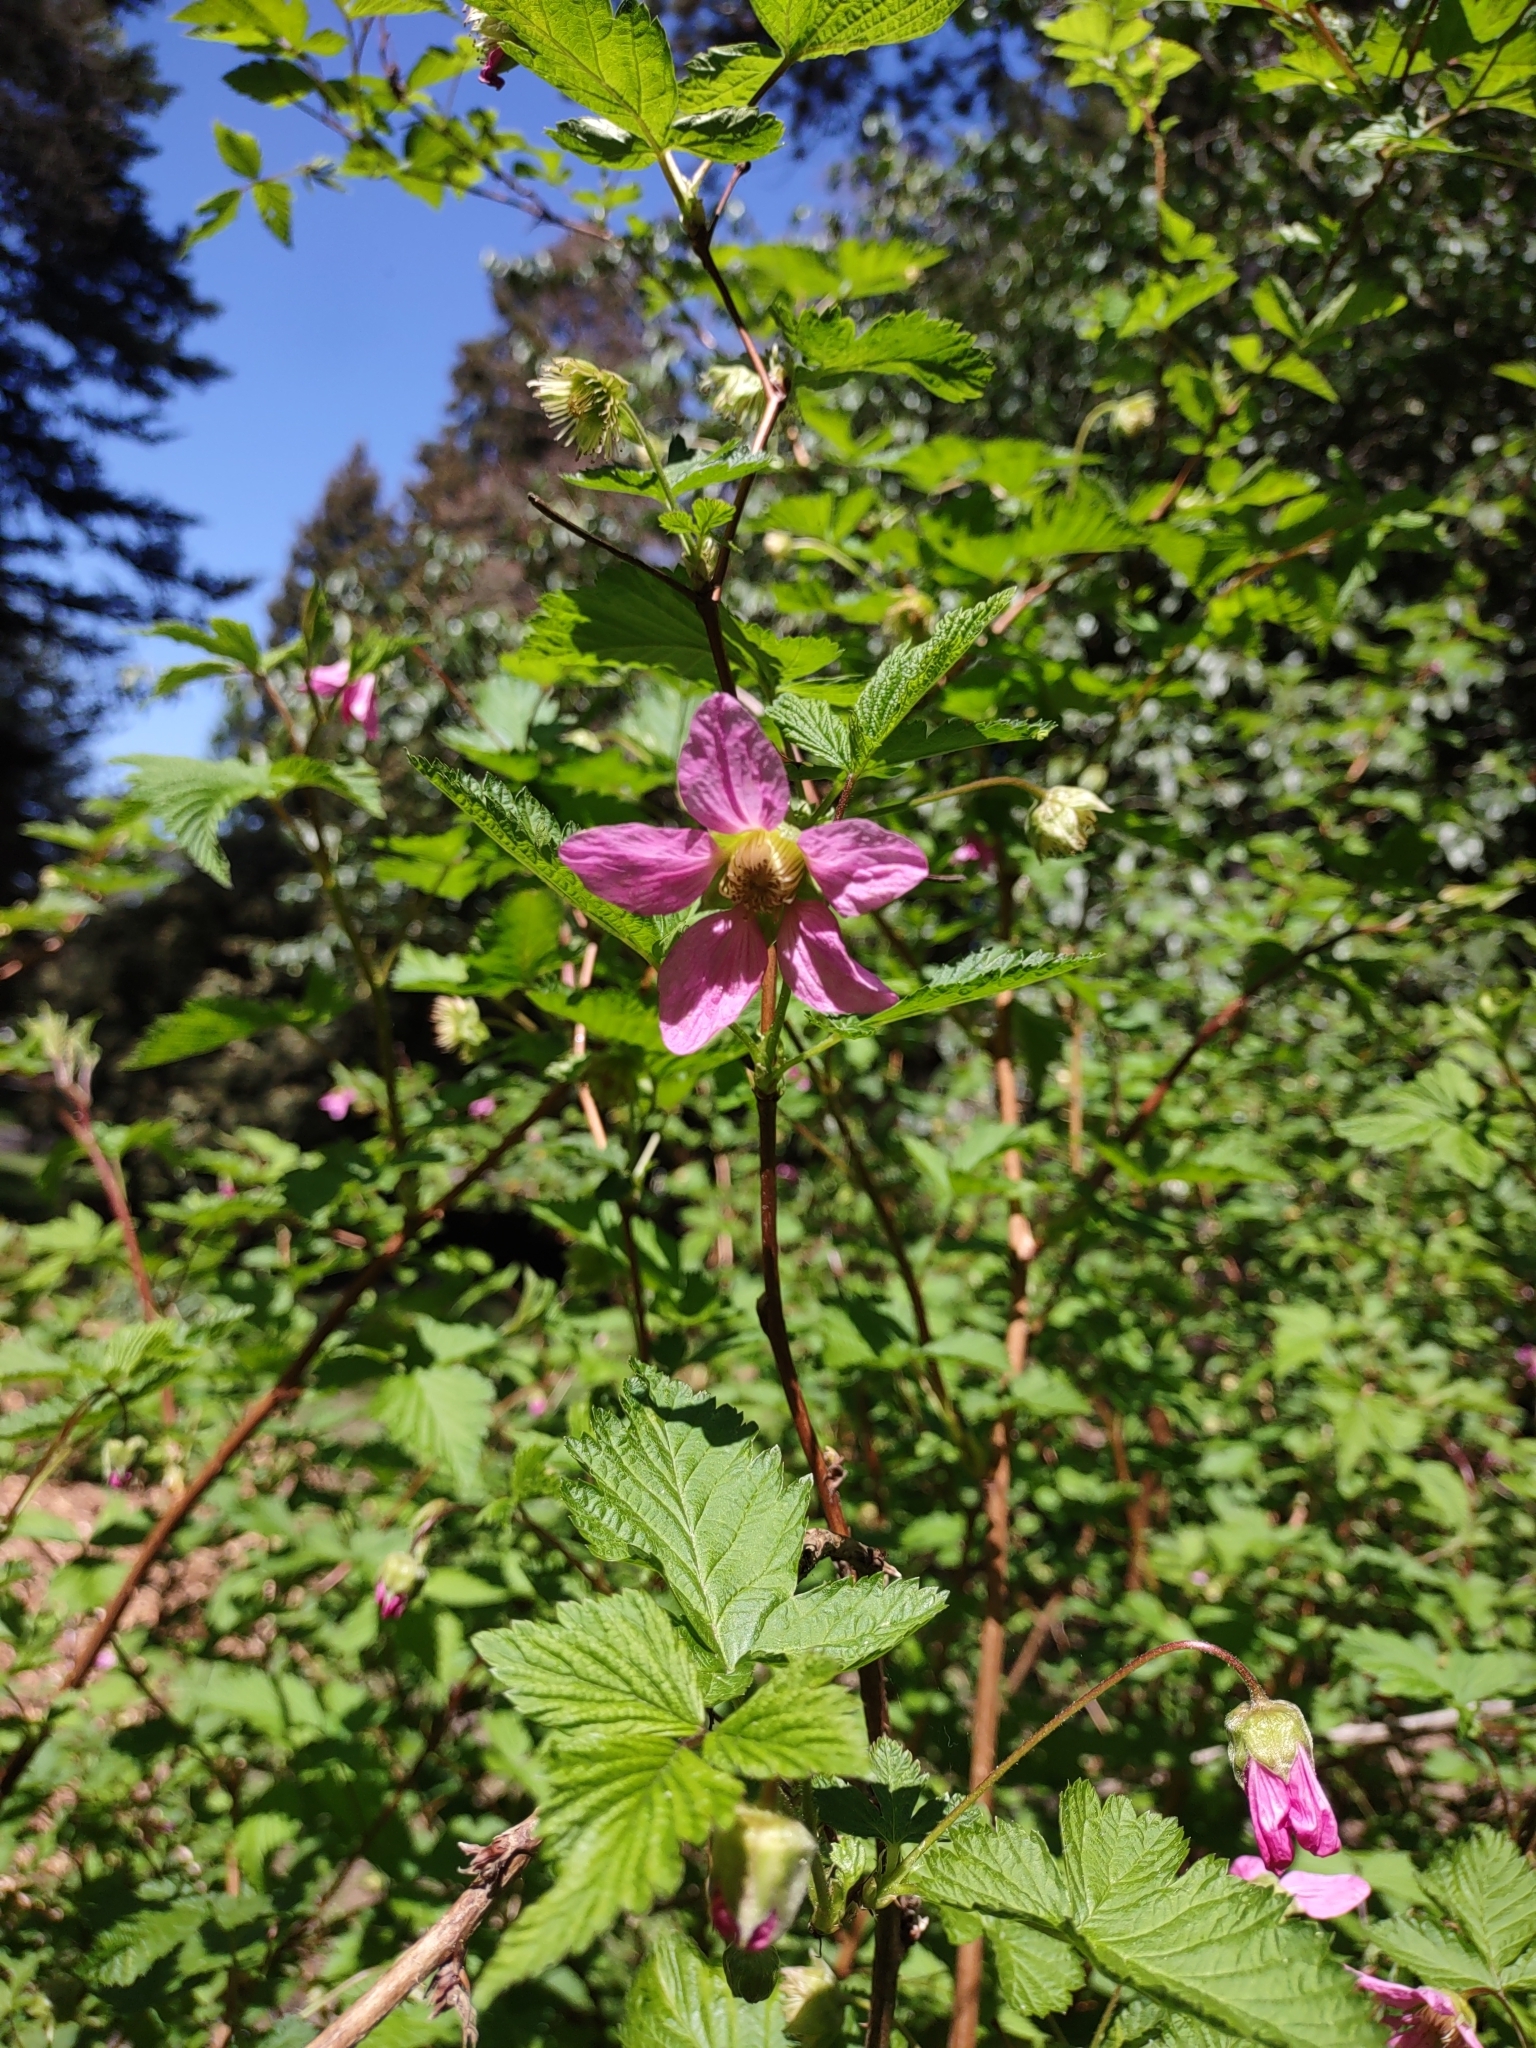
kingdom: Plantae
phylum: Tracheophyta
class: Magnoliopsida
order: Rosales
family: Rosaceae
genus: Rubus
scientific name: Rubus spectabilis
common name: Salmonberry
